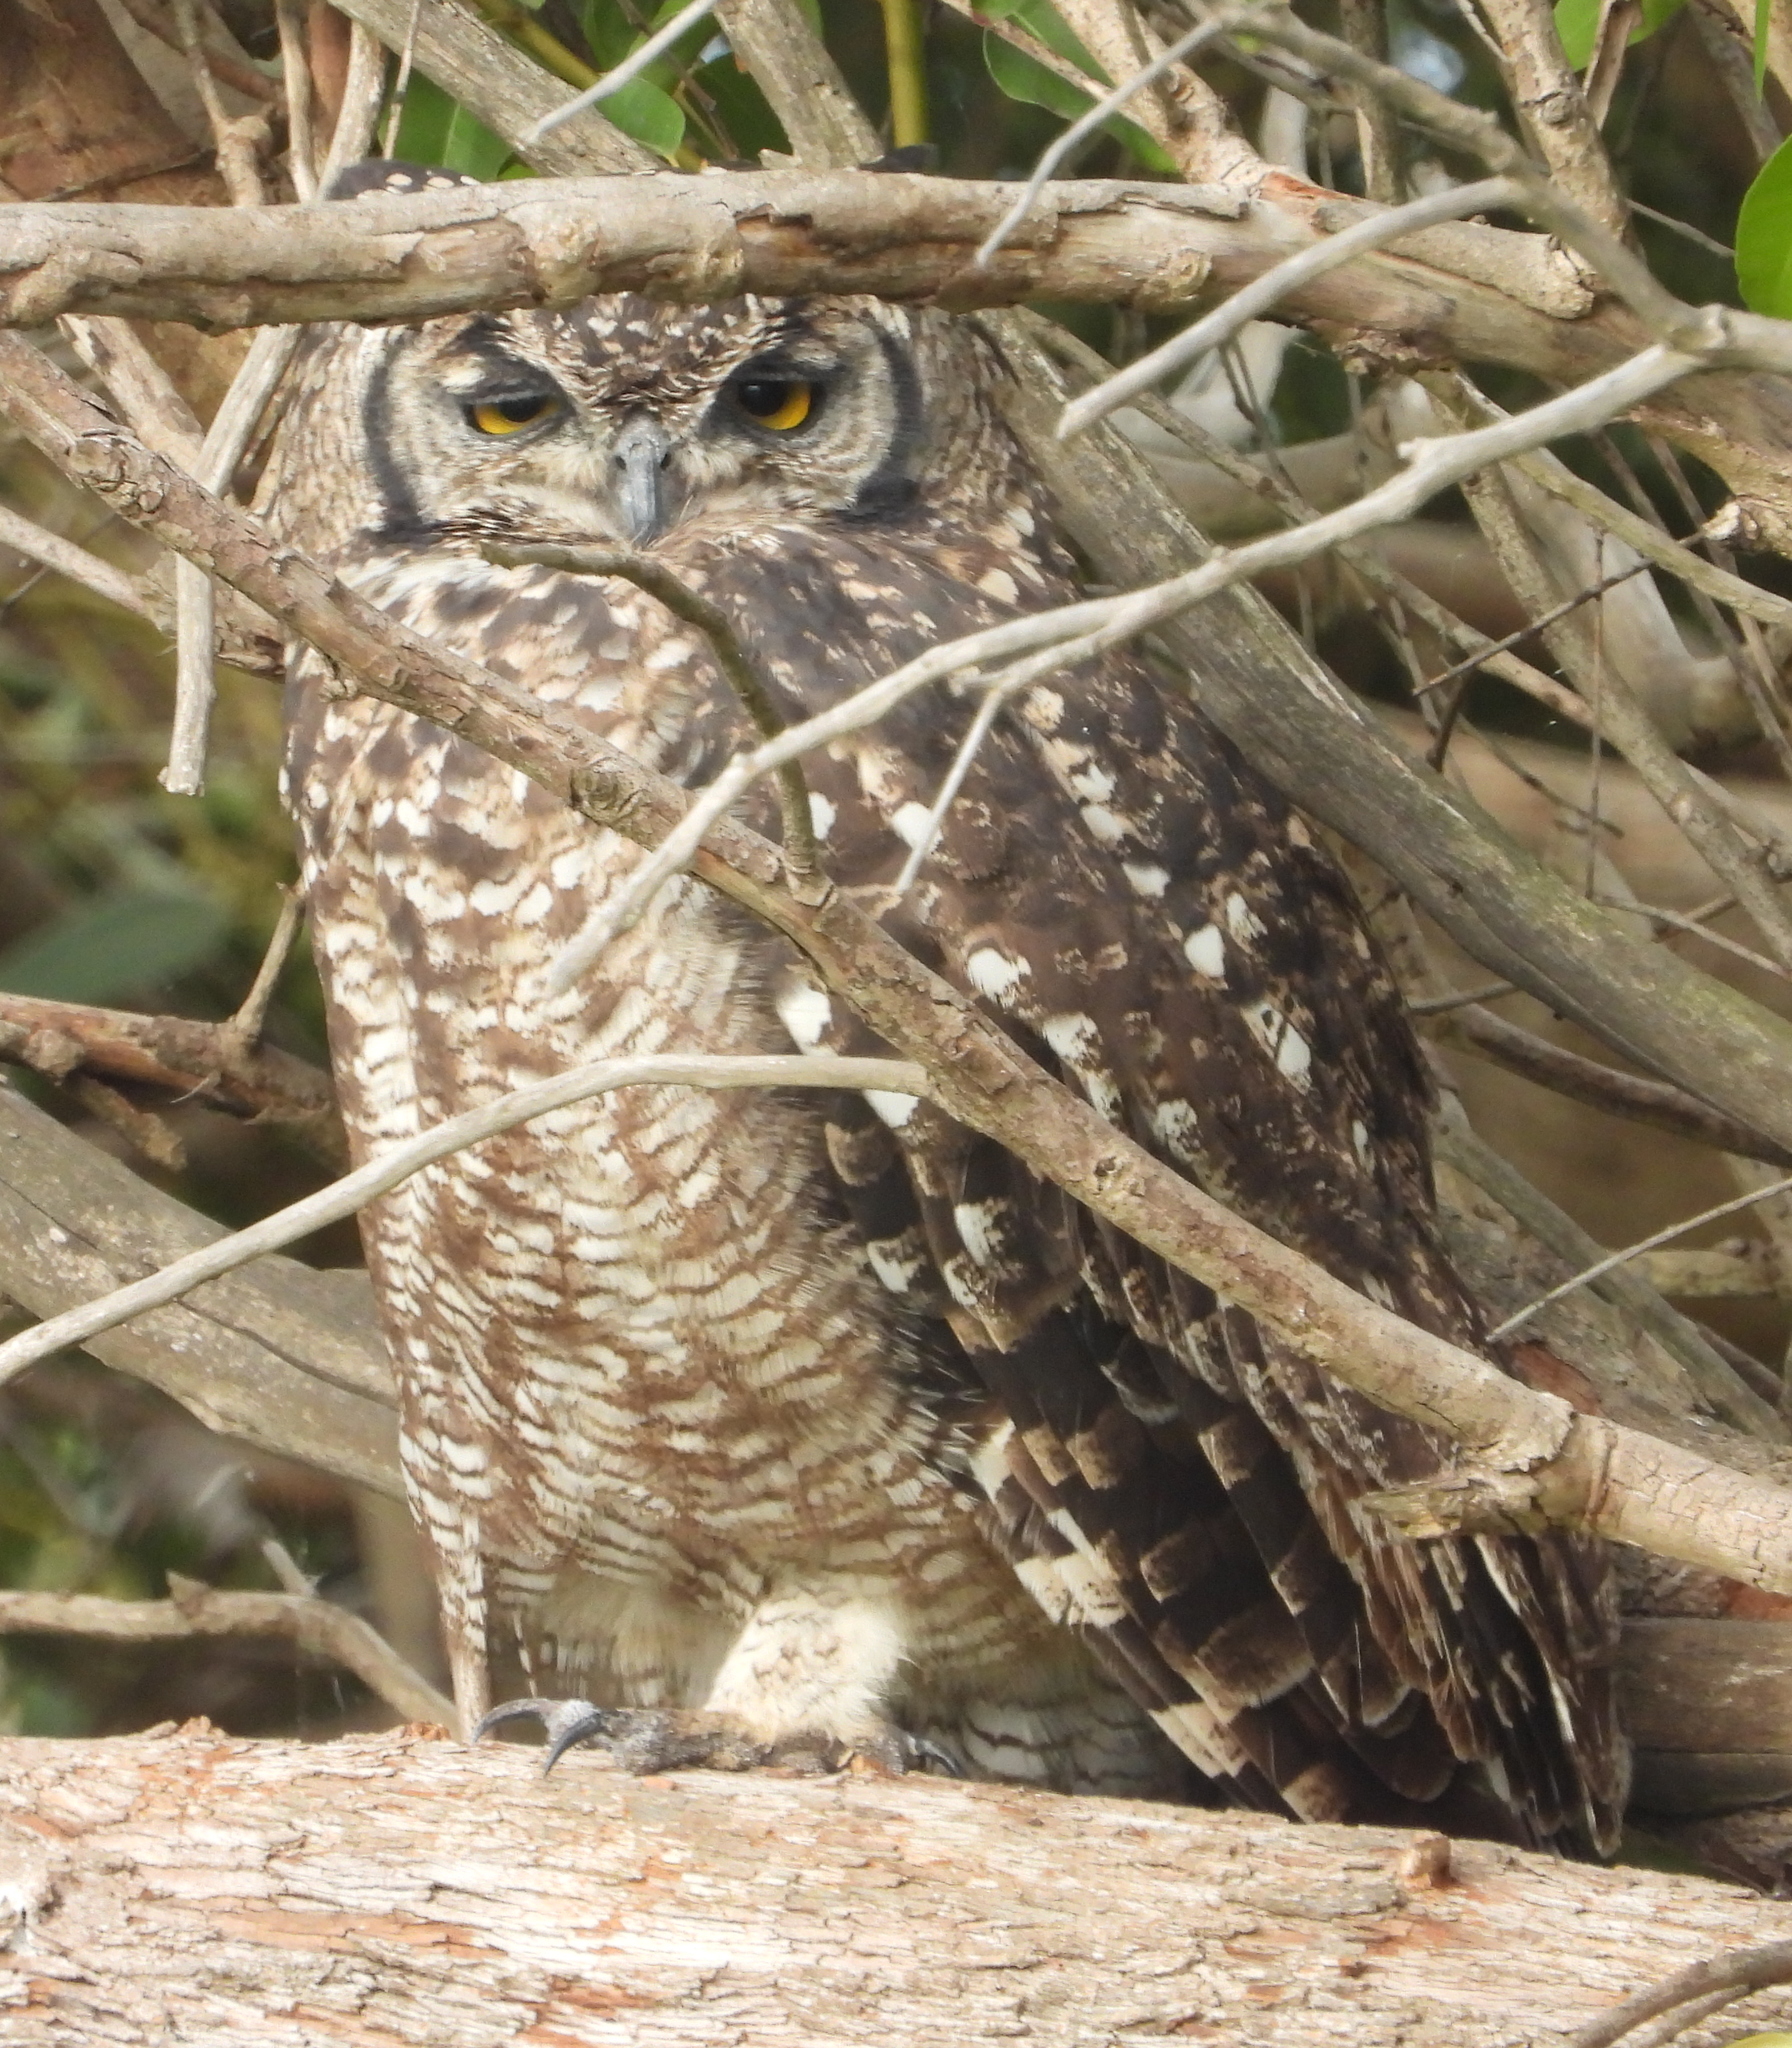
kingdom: Animalia
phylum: Chordata
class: Aves
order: Strigiformes
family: Strigidae
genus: Bubo
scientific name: Bubo africanus
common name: Spotted eagle-owl
